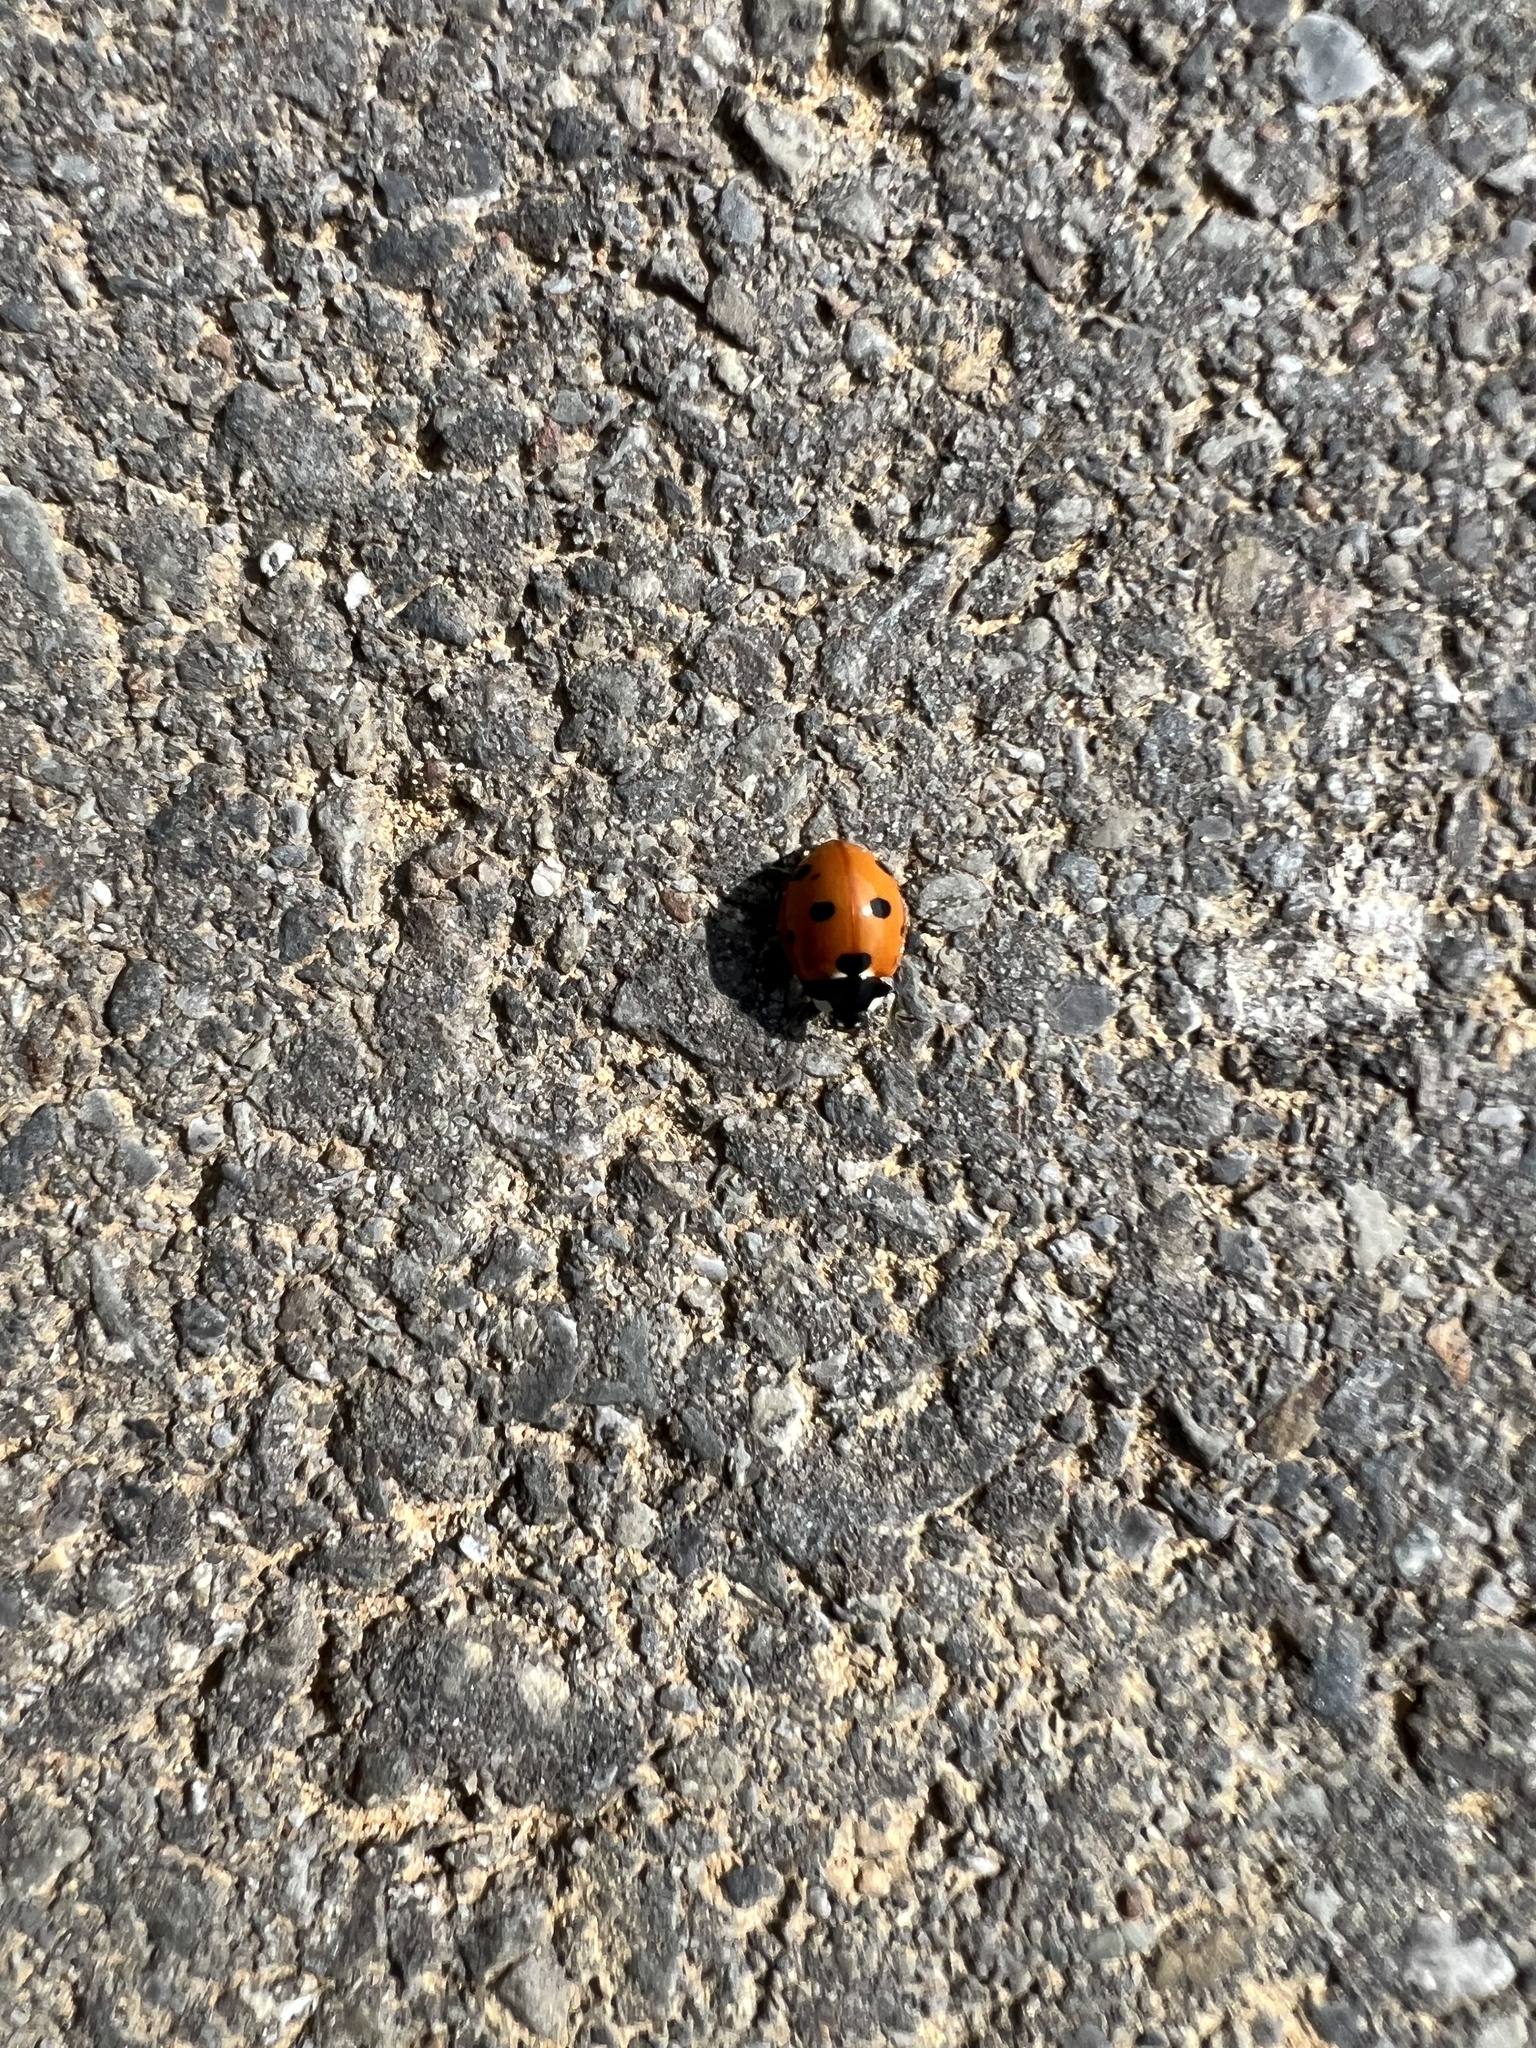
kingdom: Animalia
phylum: Arthropoda
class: Insecta
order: Coleoptera
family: Coccinellidae
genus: Coccinella
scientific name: Coccinella septempunctata
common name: Sevenspotted lady beetle
